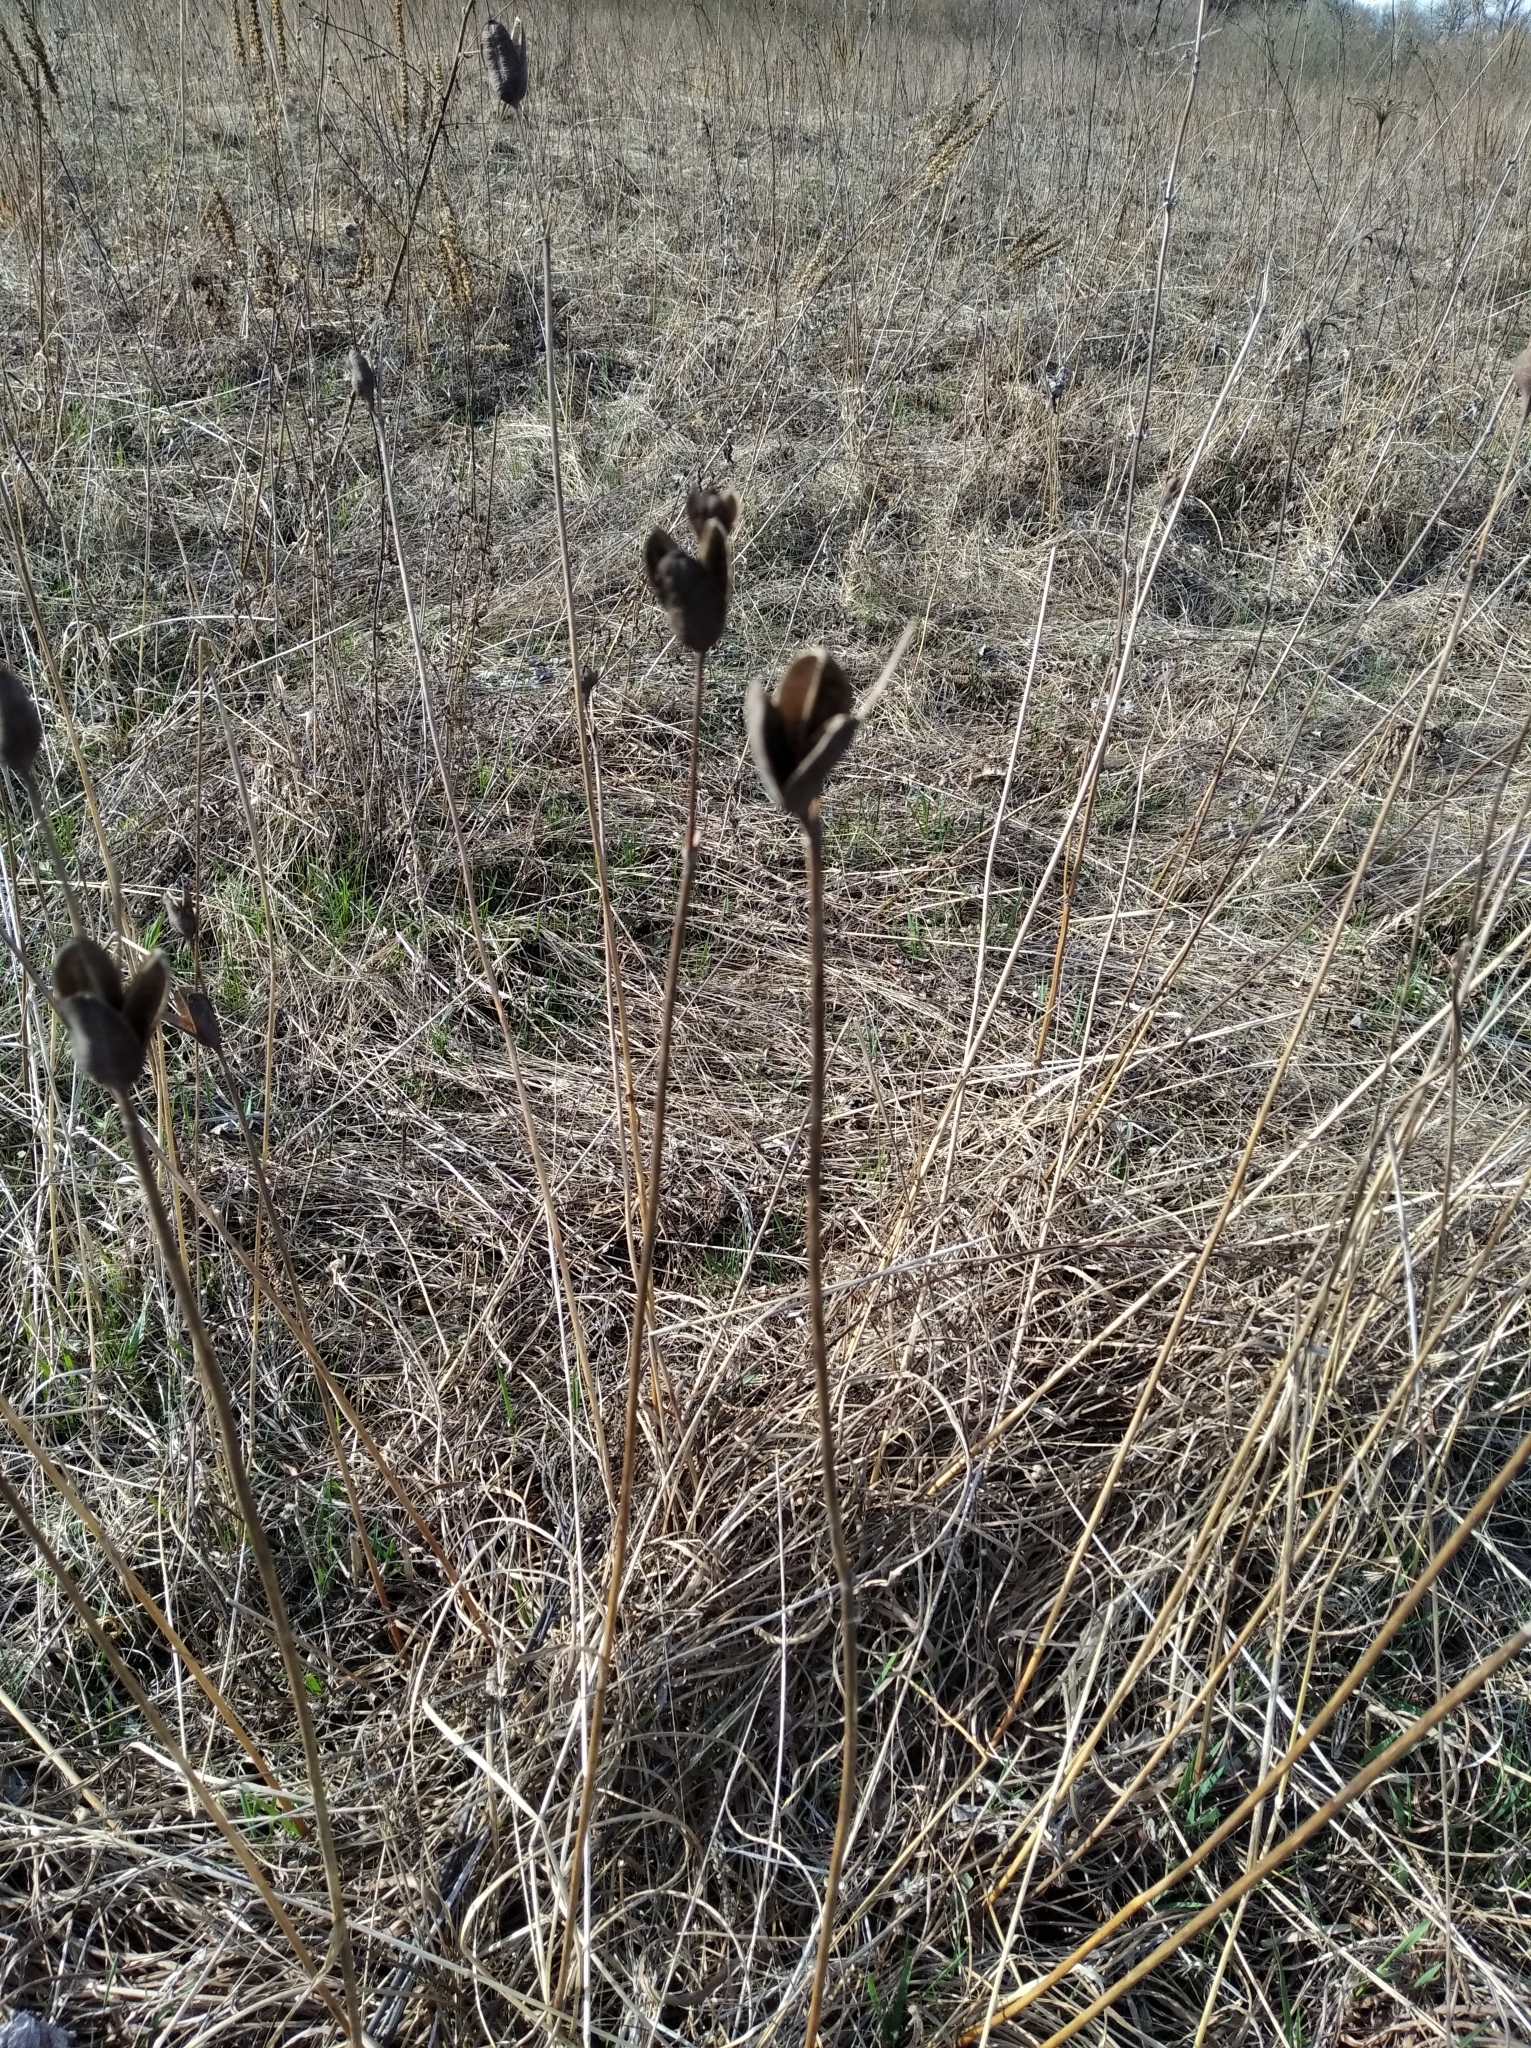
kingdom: Plantae
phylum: Tracheophyta
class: Liliopsida
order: Asparagales
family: Iridaceae
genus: Iris
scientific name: Iris sibirica
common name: Siberian iris
